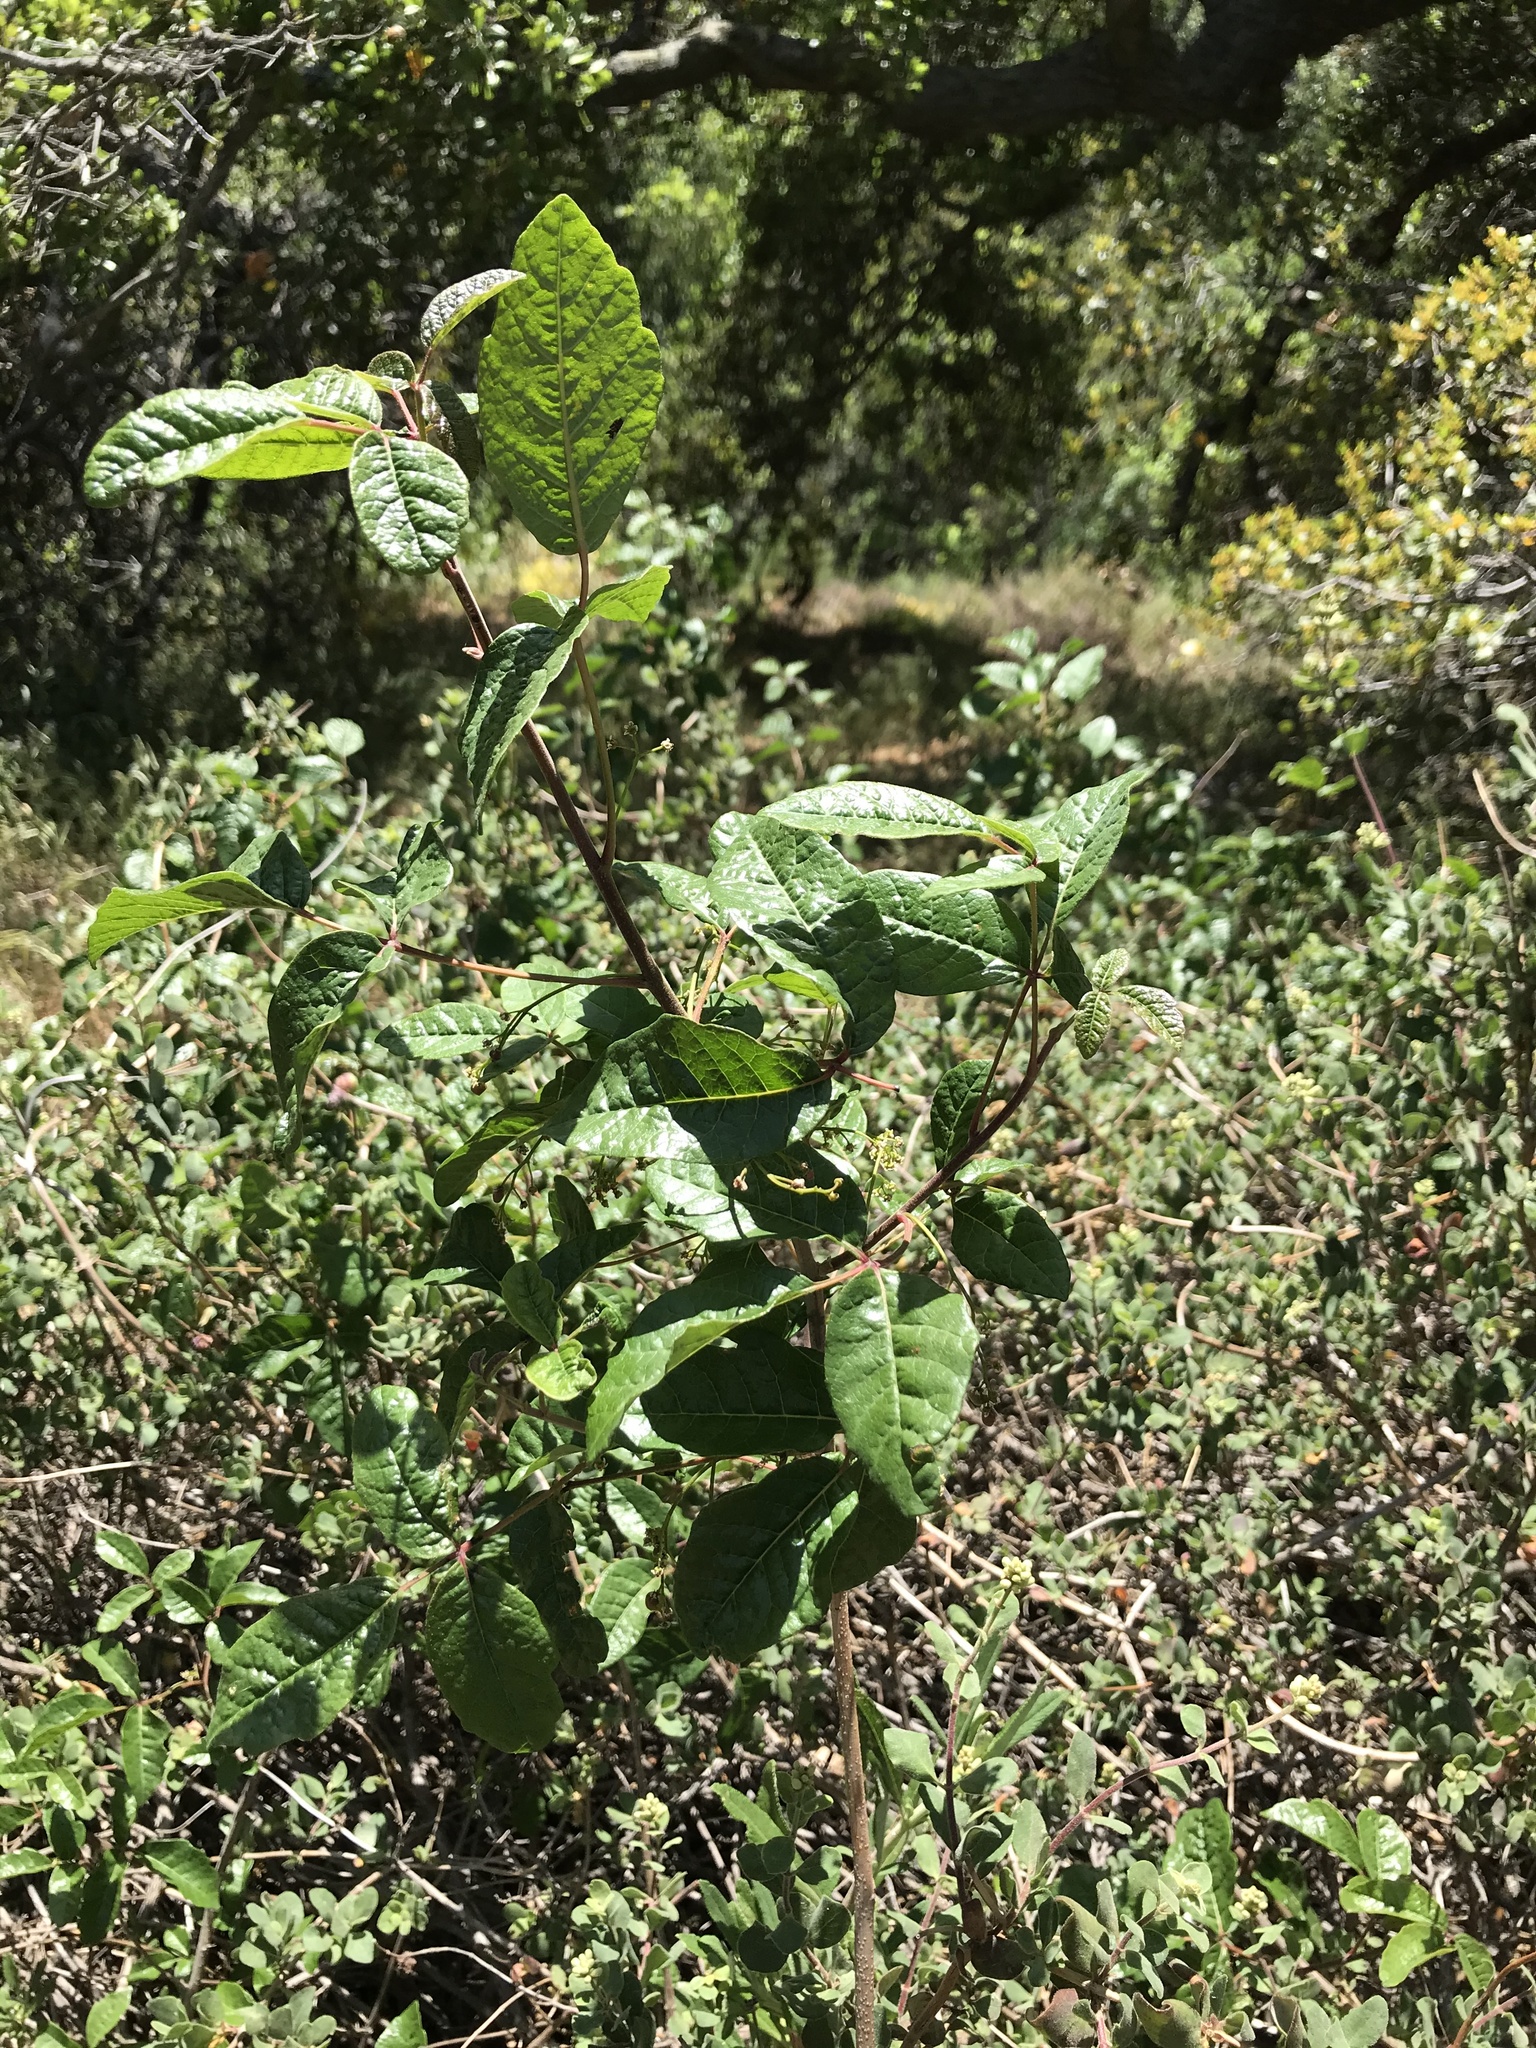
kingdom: Plantae
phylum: Tracheophyta
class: Magnoliopsida
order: Sapindales
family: Anacardiaceae
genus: Toxicodendron
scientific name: Toxicodendron diversilobum
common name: Pacific poison-oak
